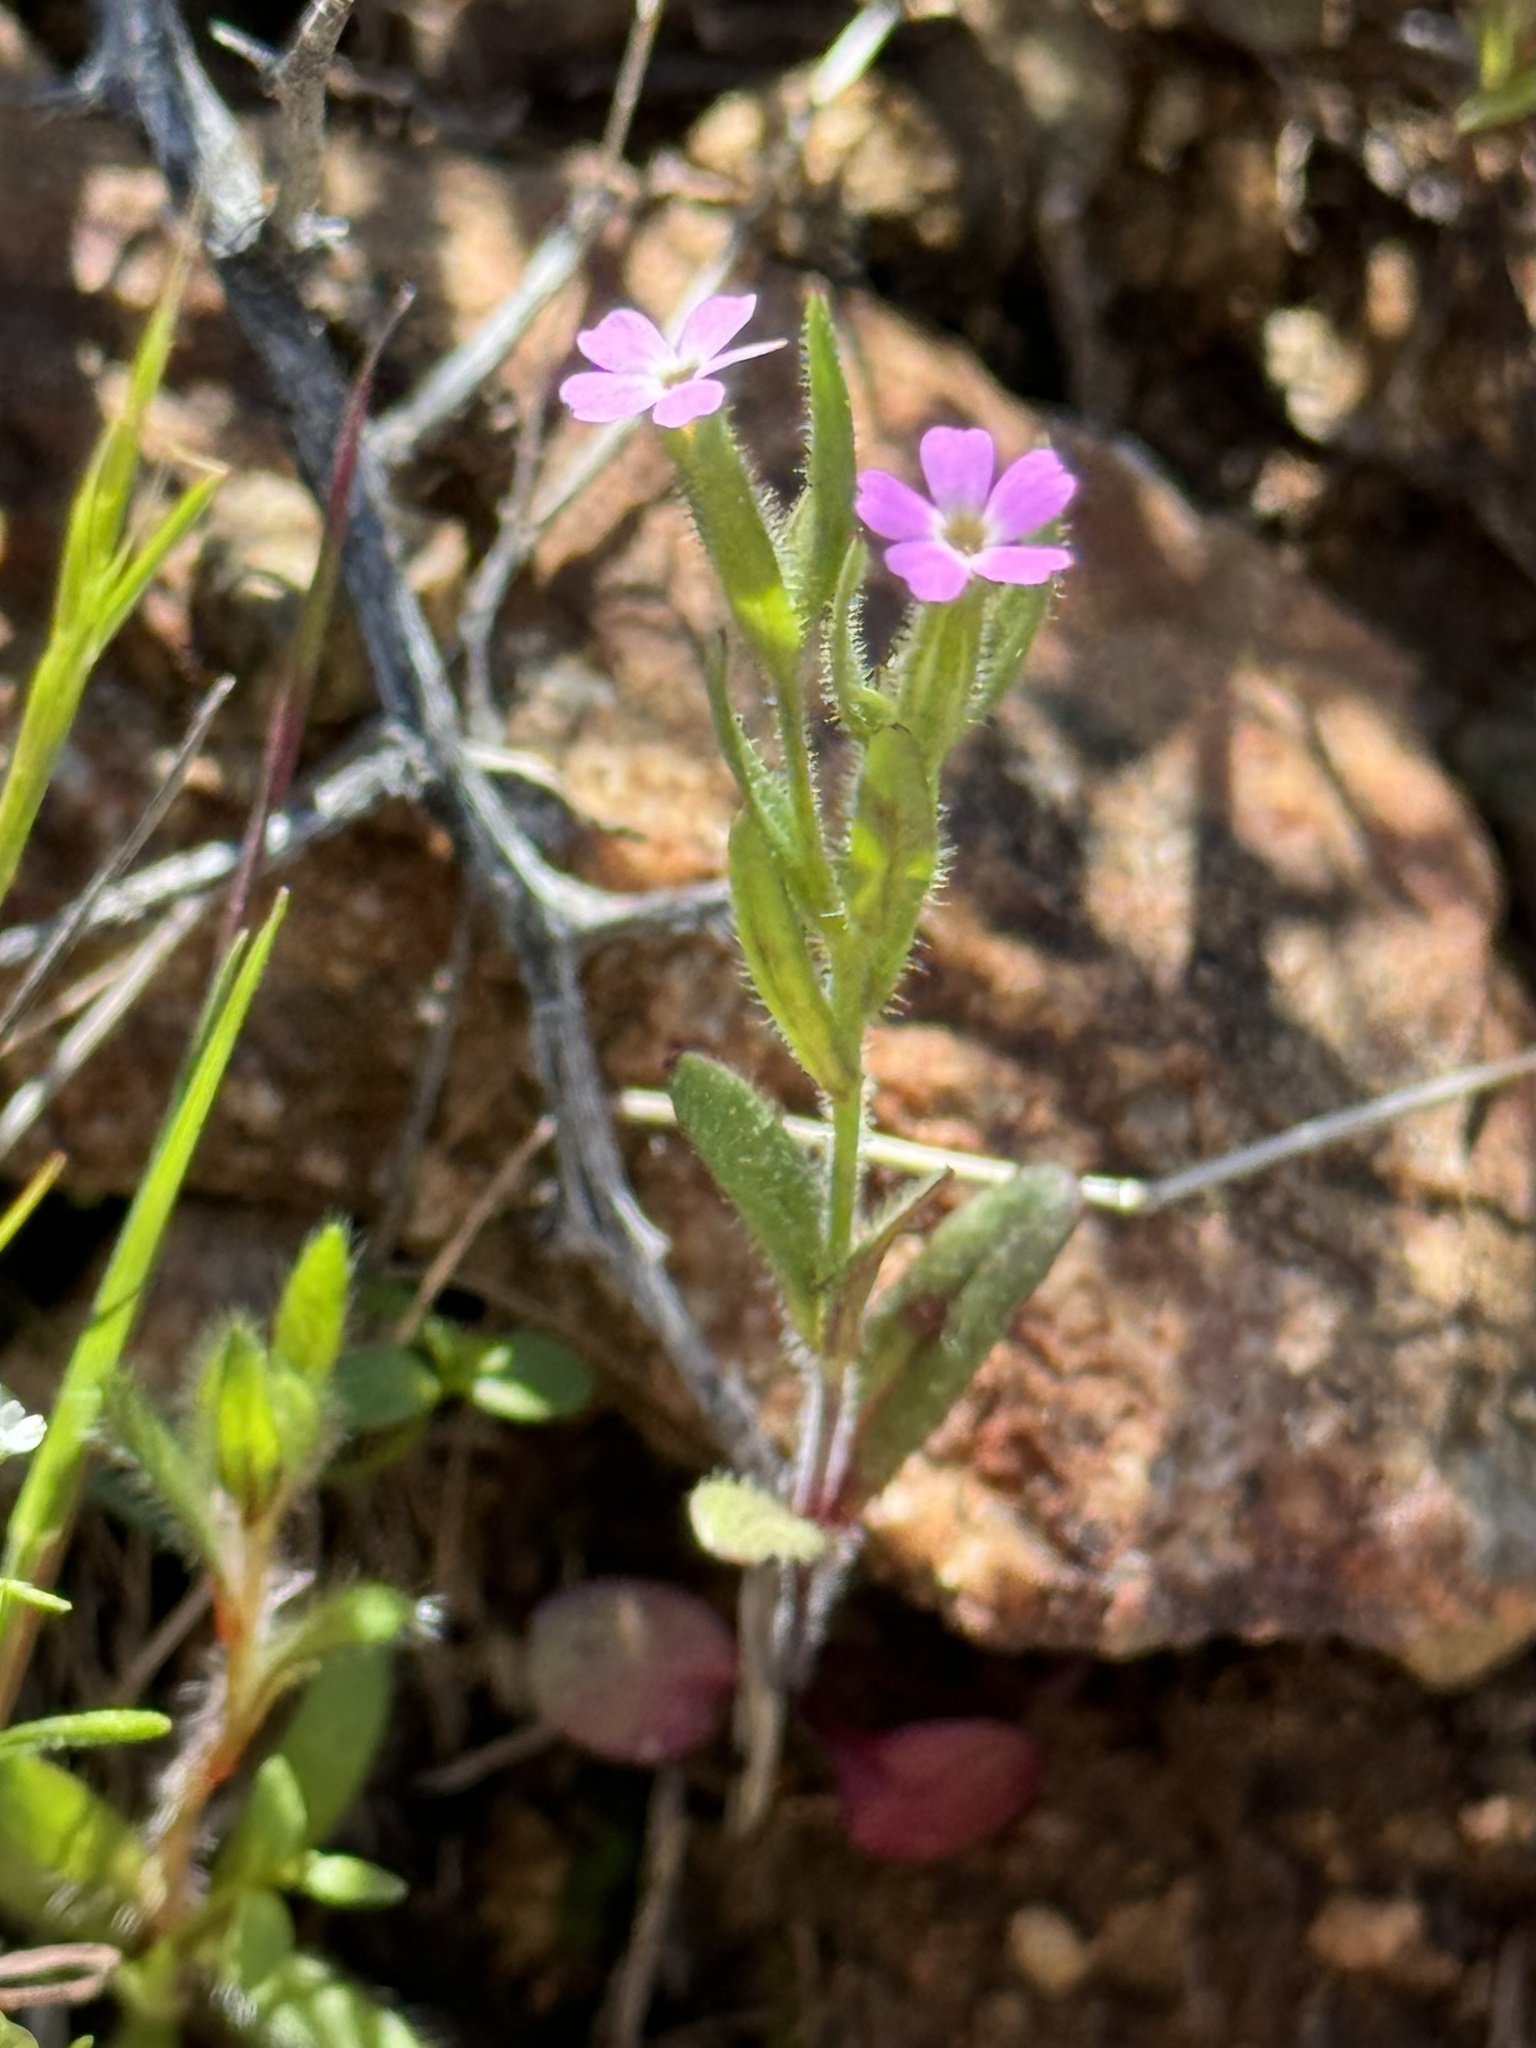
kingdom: Plantae
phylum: Tracheophyta
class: Magnoliopsida
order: Ericales
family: Polemoniaceae
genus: Phlox
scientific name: Phlox gracilis
